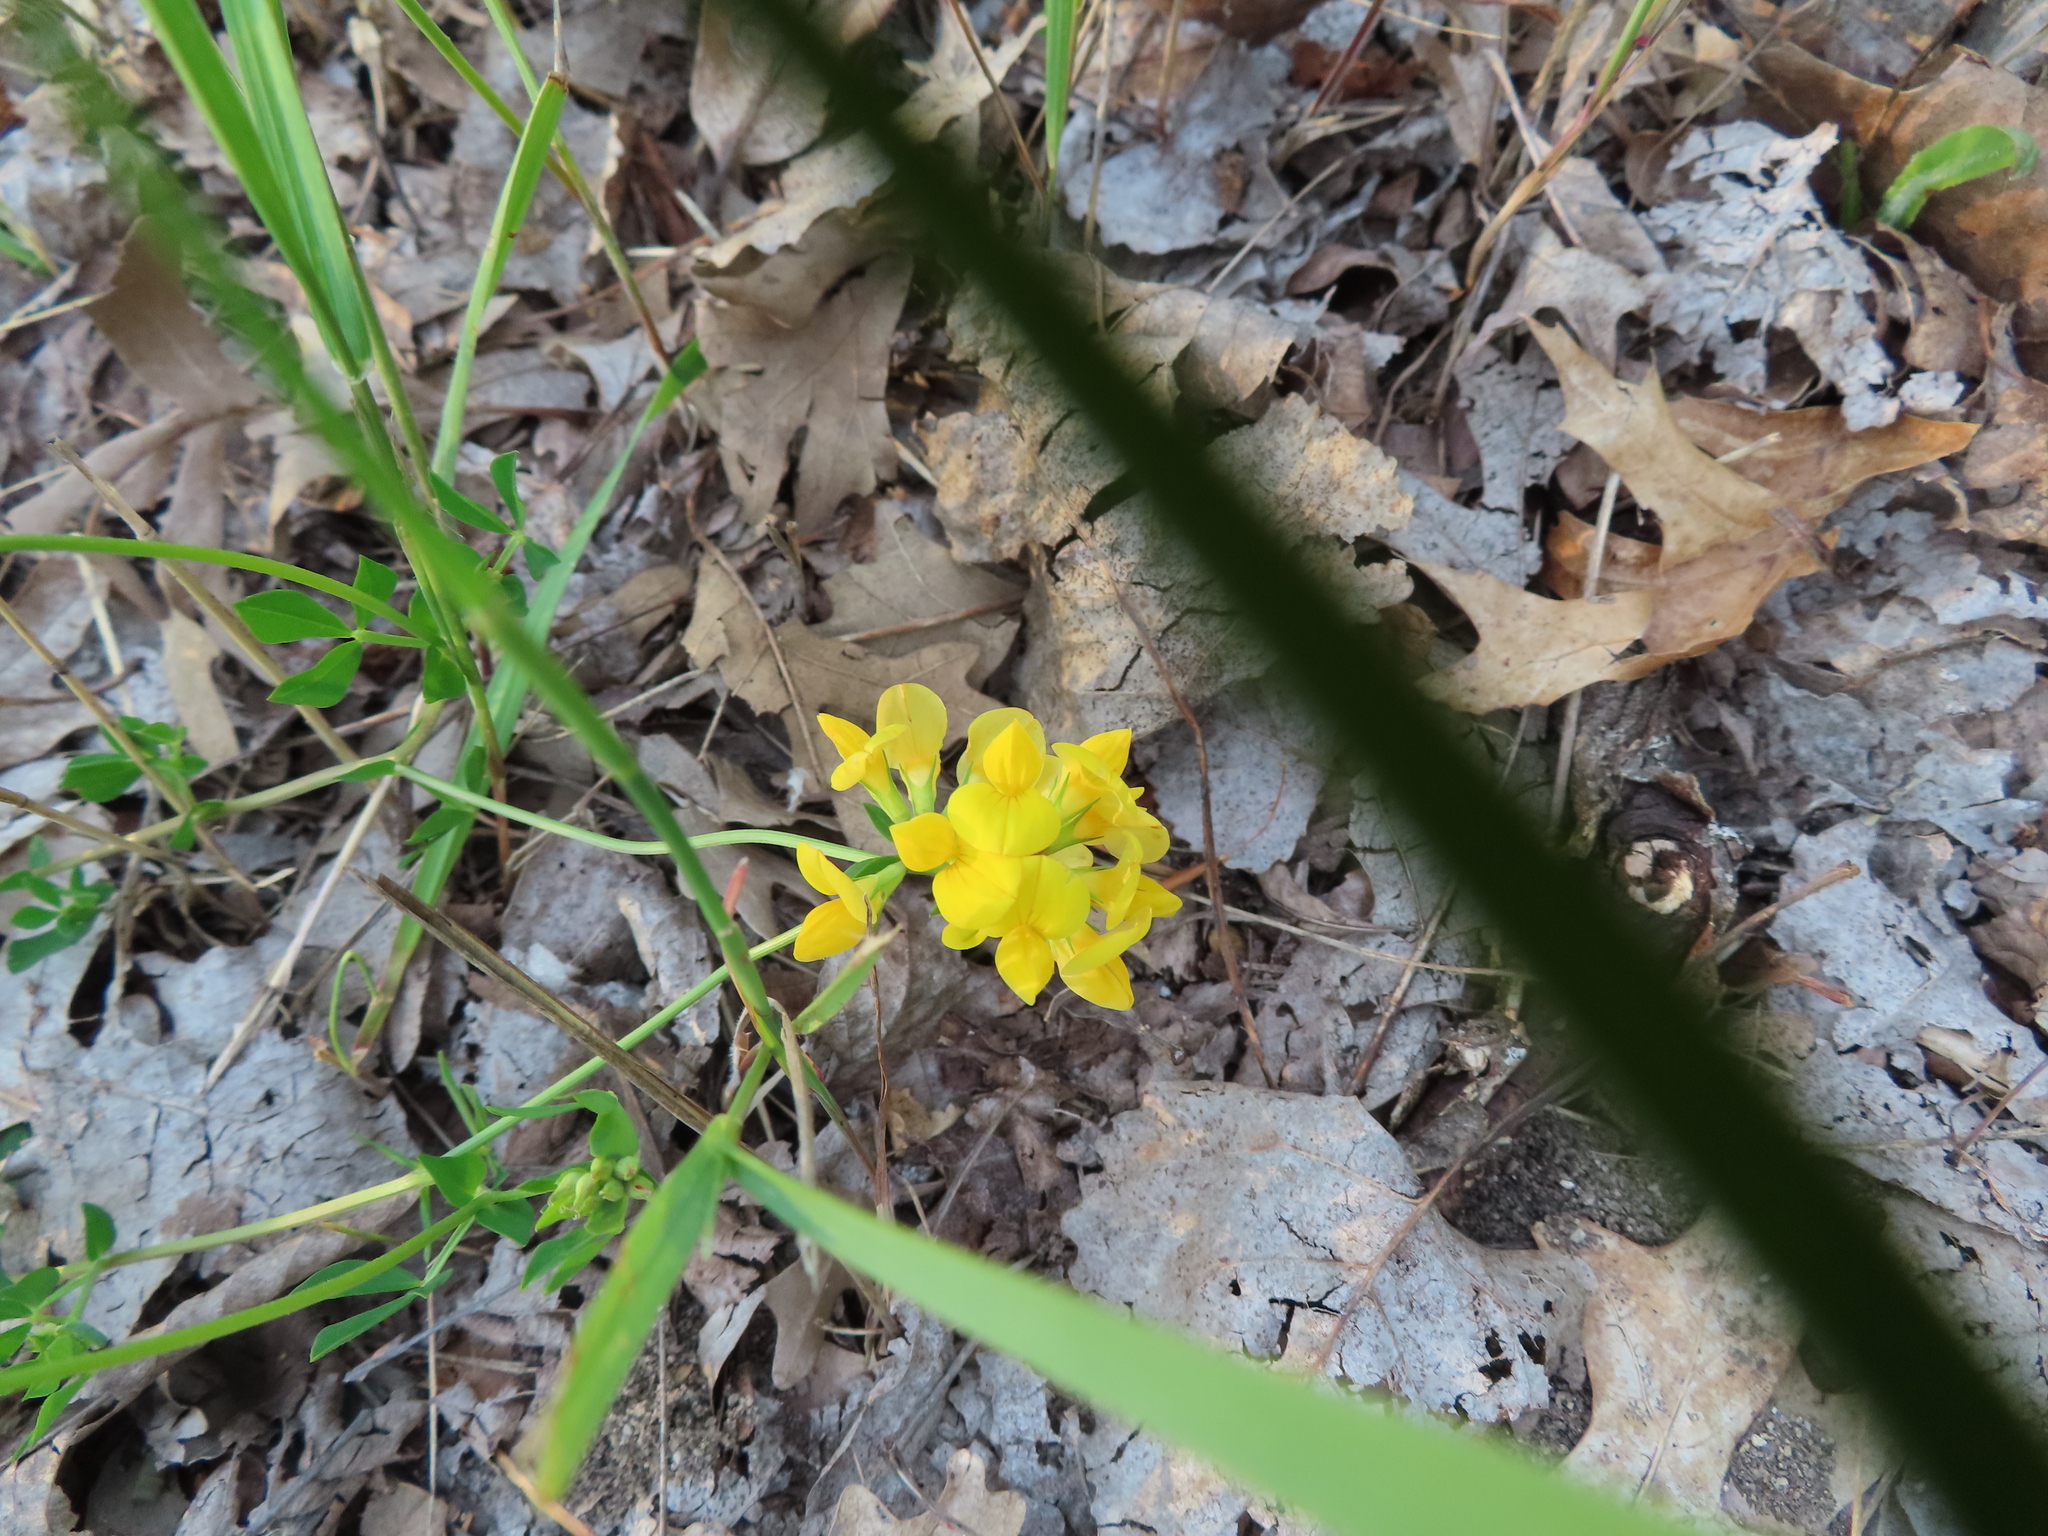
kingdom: Plantae
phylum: Tracheophyta
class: Magnoliopsida
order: Fabales
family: Fabaceae
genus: Lotus
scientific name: Lotus corniculatus
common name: Common bird's-foot-trefoil
